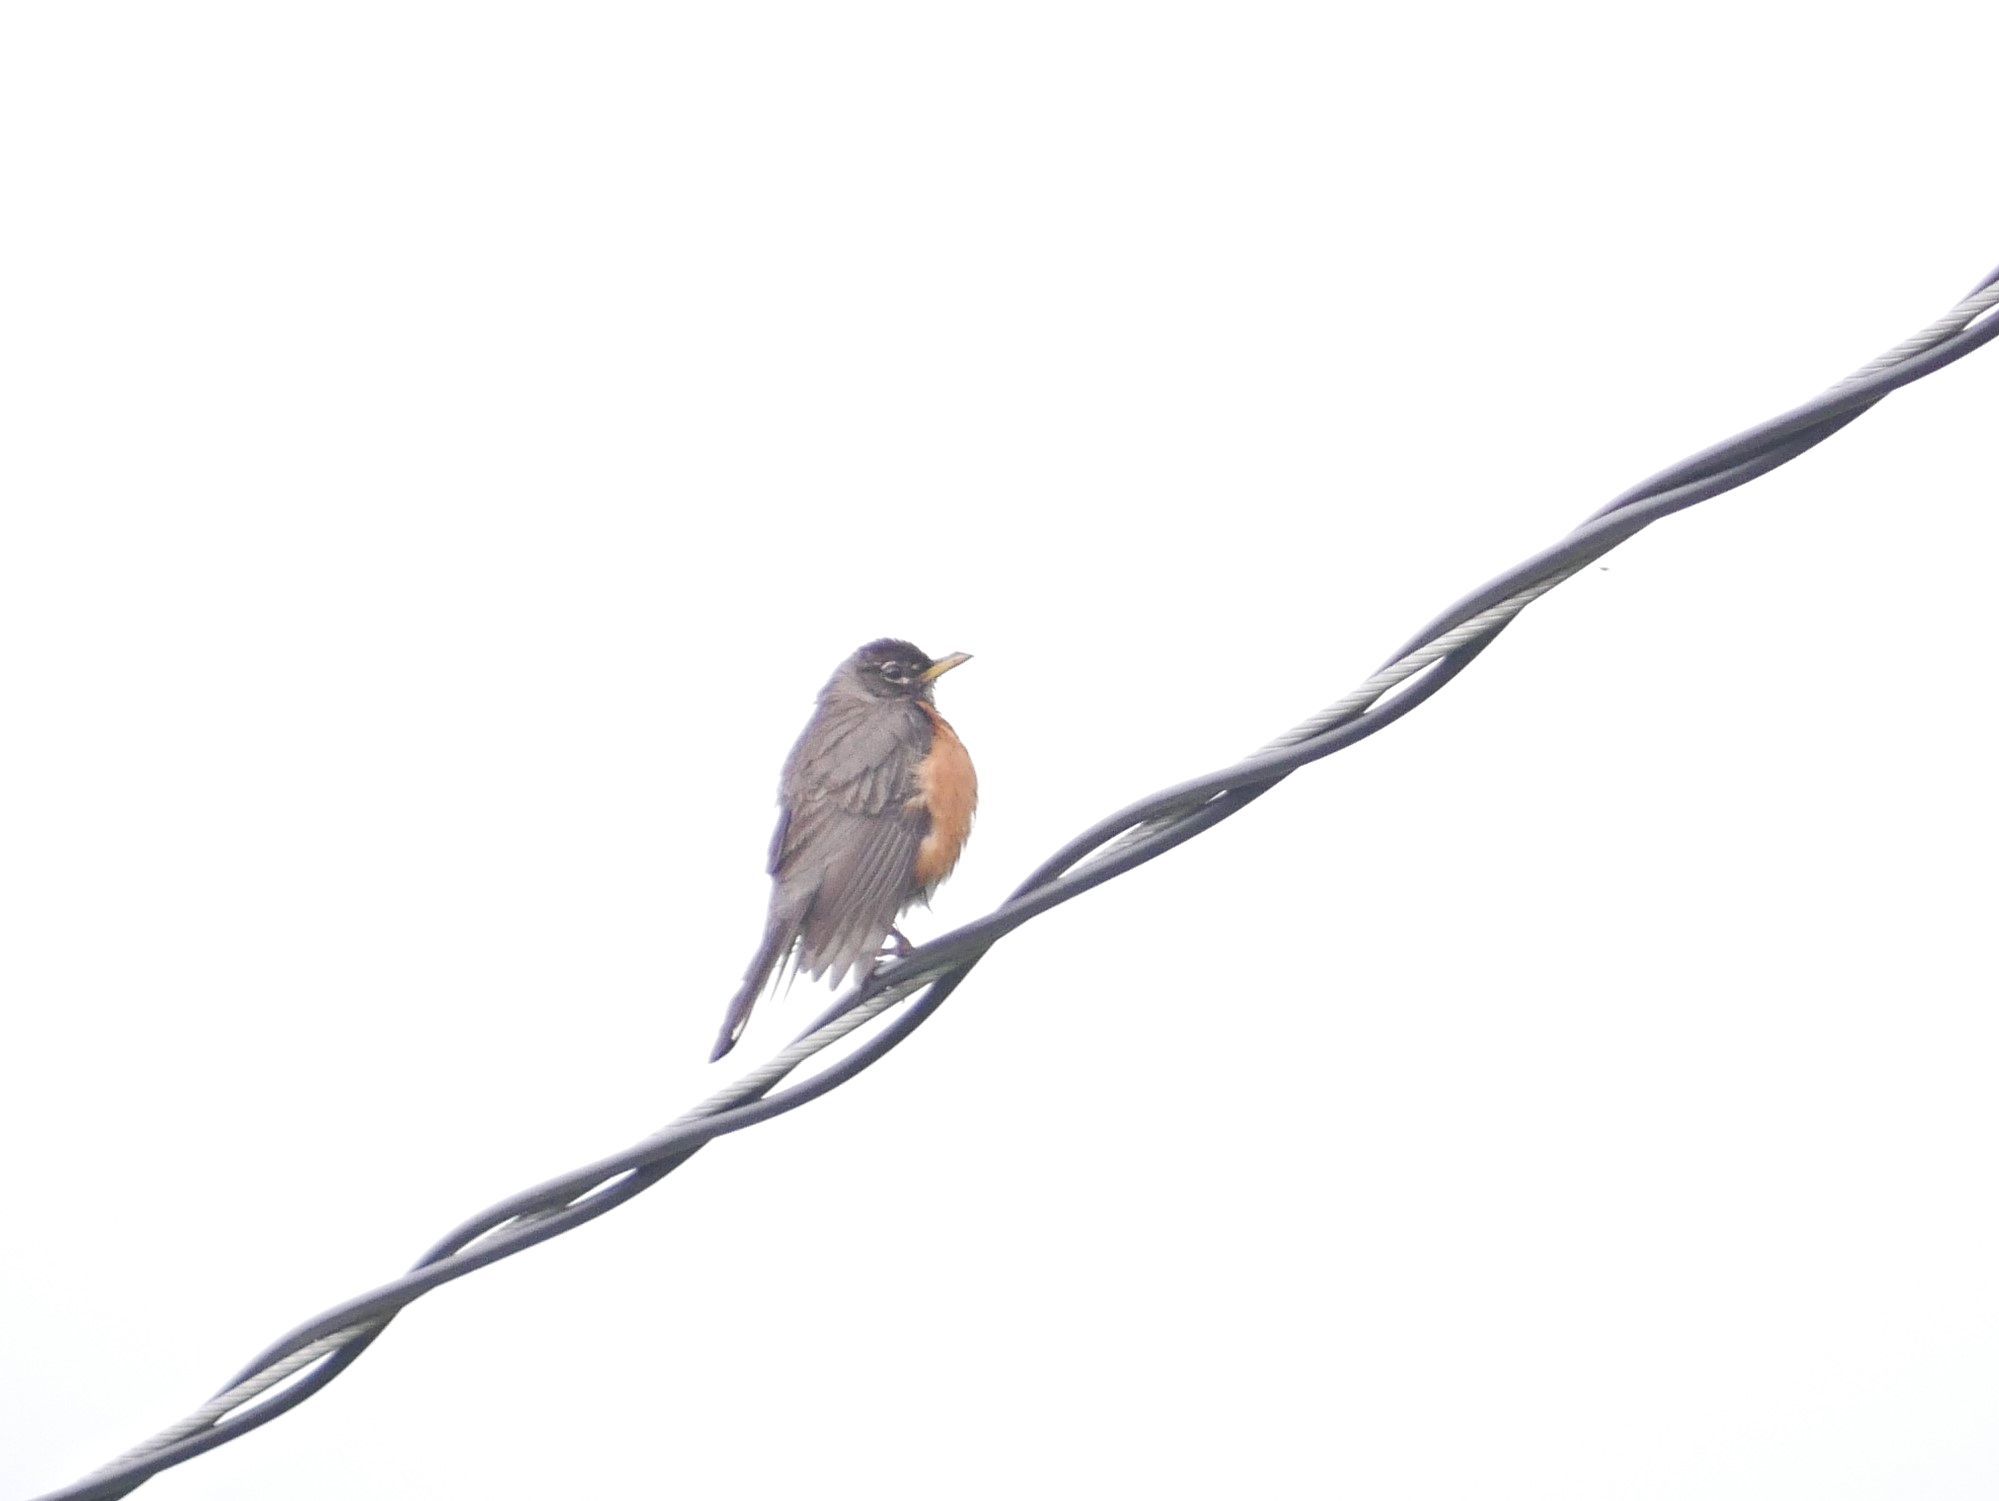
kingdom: Animalia
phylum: Chordata
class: Aves
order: Passeriformes
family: Turdidae
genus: Turdus
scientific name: Turdus migratorius
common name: American robin
